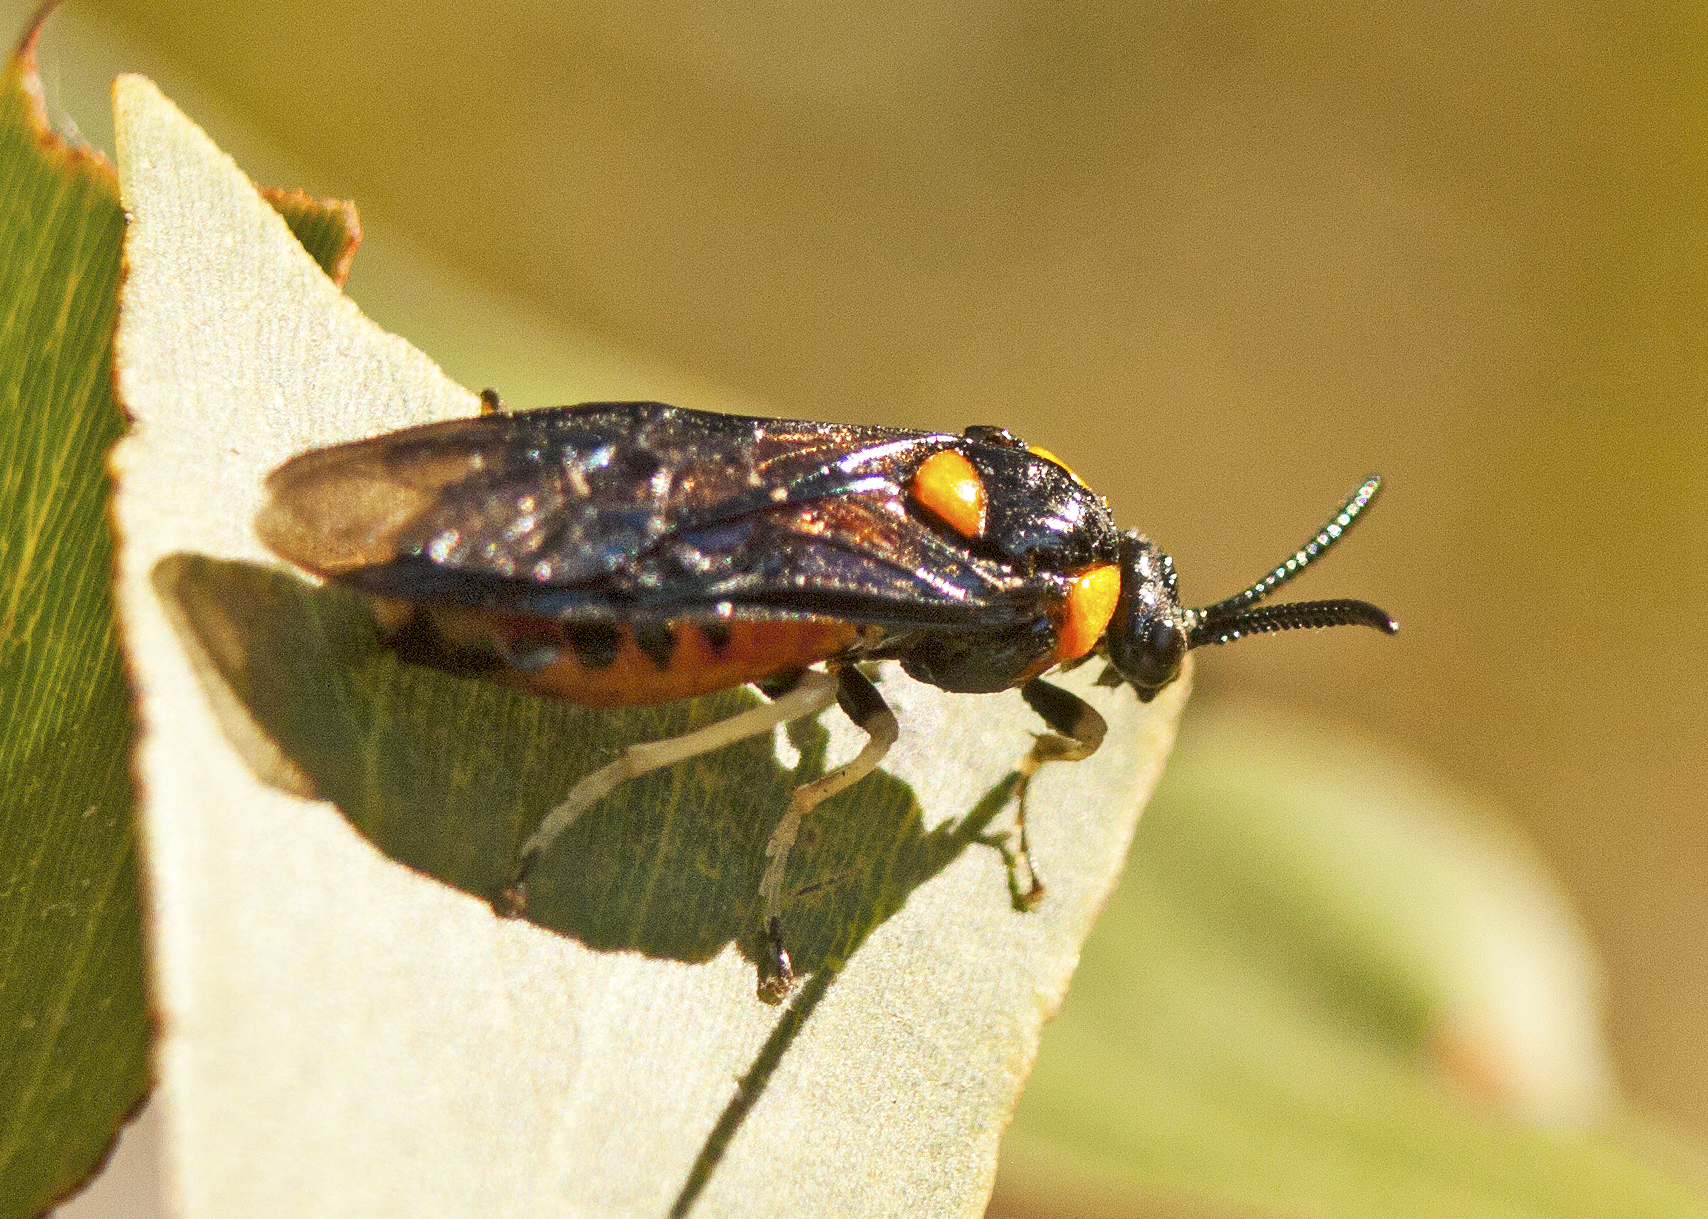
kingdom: Animalia
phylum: Arthropoda
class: Insecta
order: Hymenoptera
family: Pergidae
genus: Lophyrotoma
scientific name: Lophyrotoma zonalis
